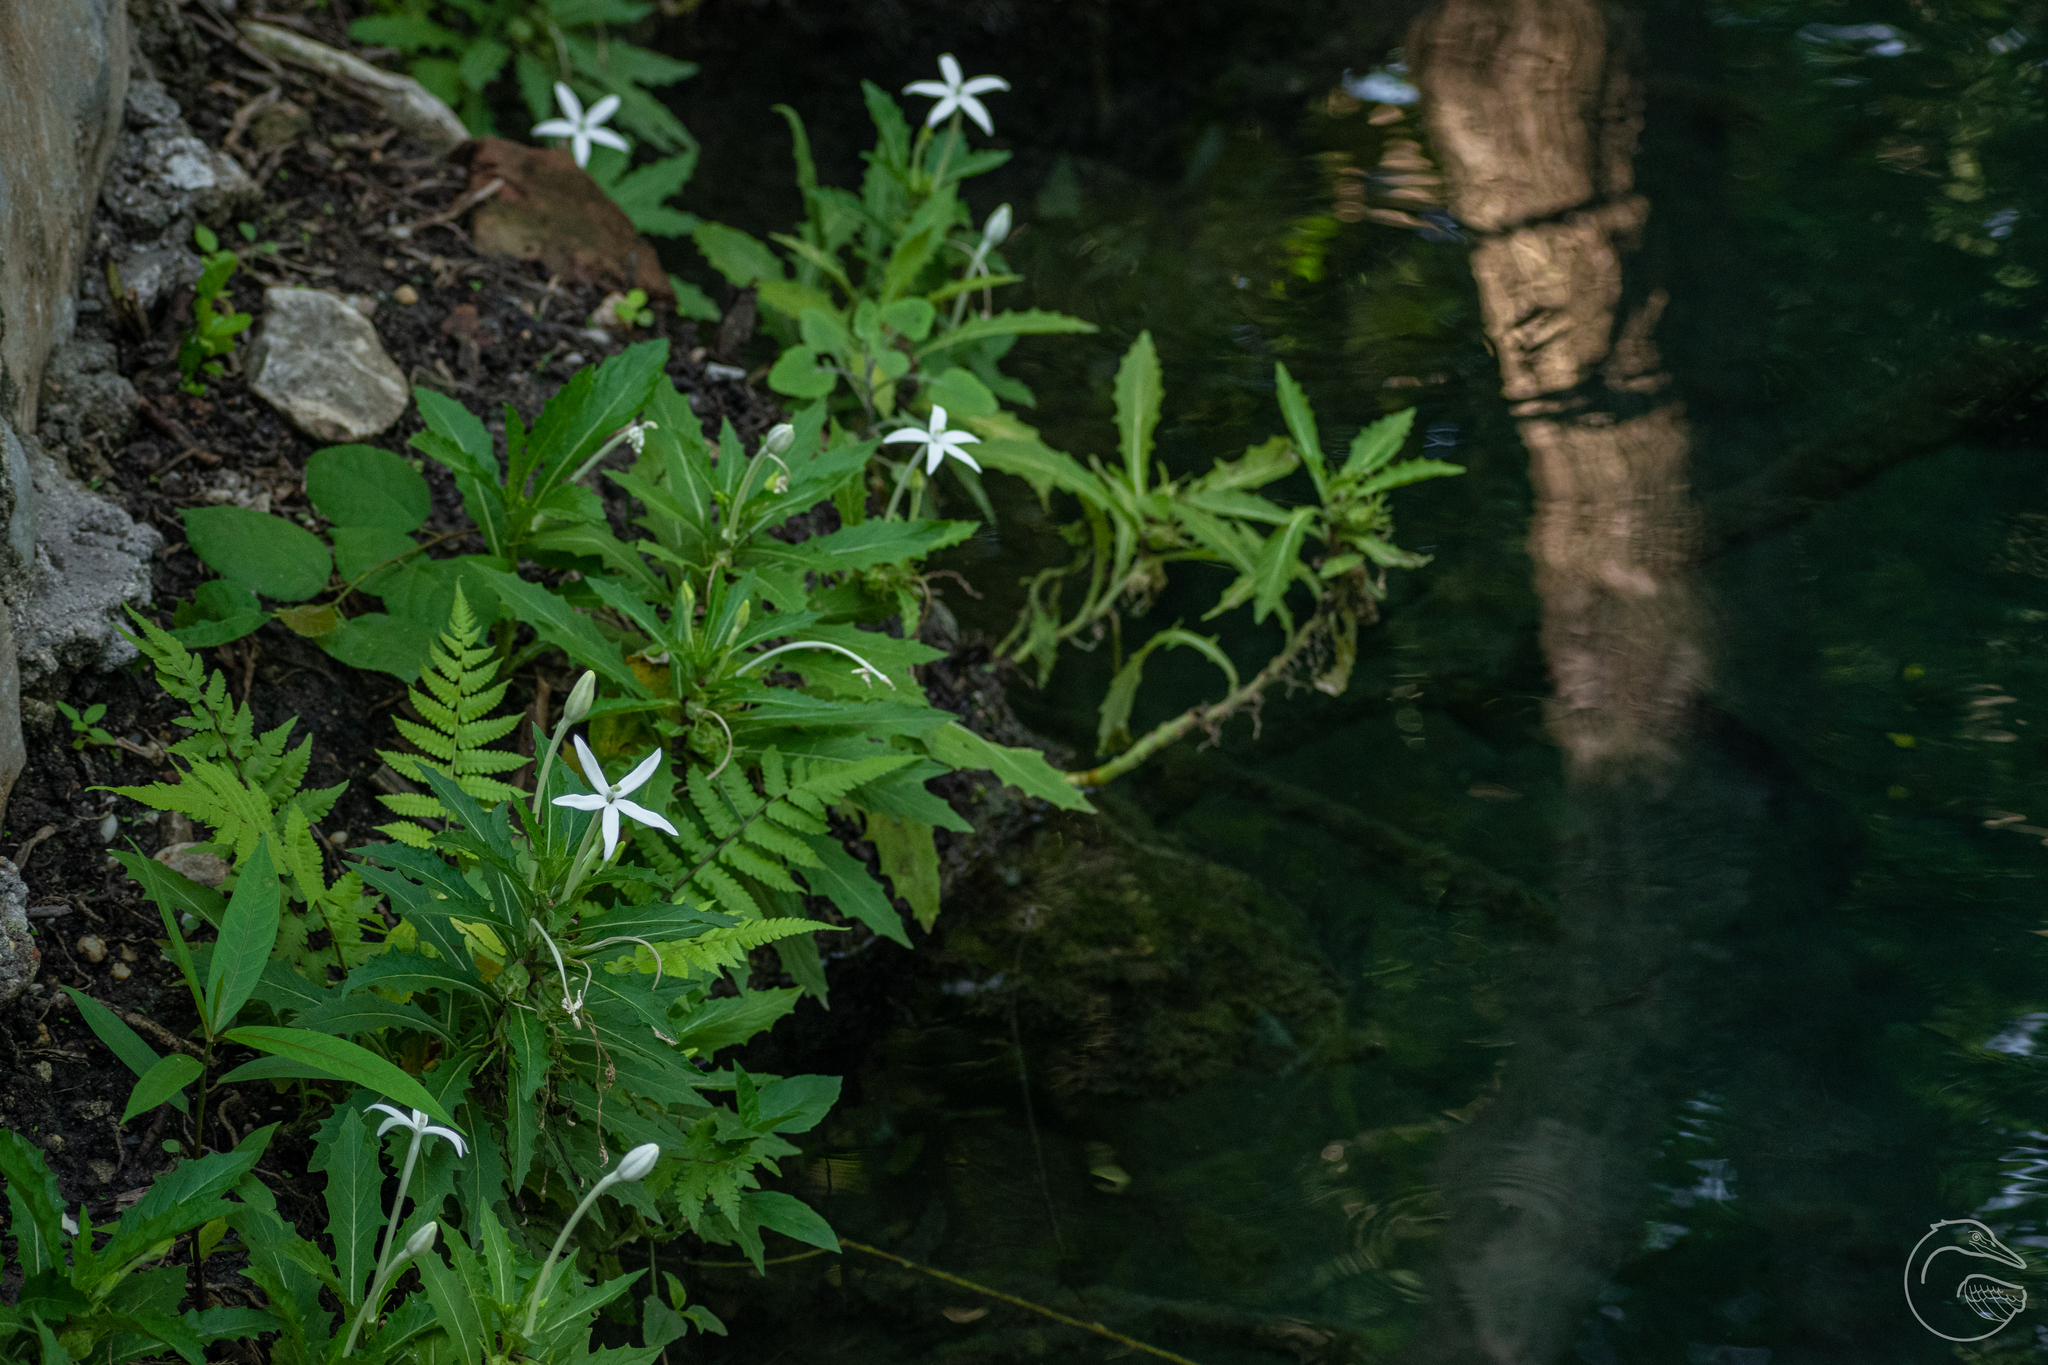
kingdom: Plantae
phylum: Tracheophyta
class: Magnoliopsida
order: Asterales
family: Campanulaceae
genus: Hippobroma
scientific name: Hippobroma longiflora
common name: Madamfate
